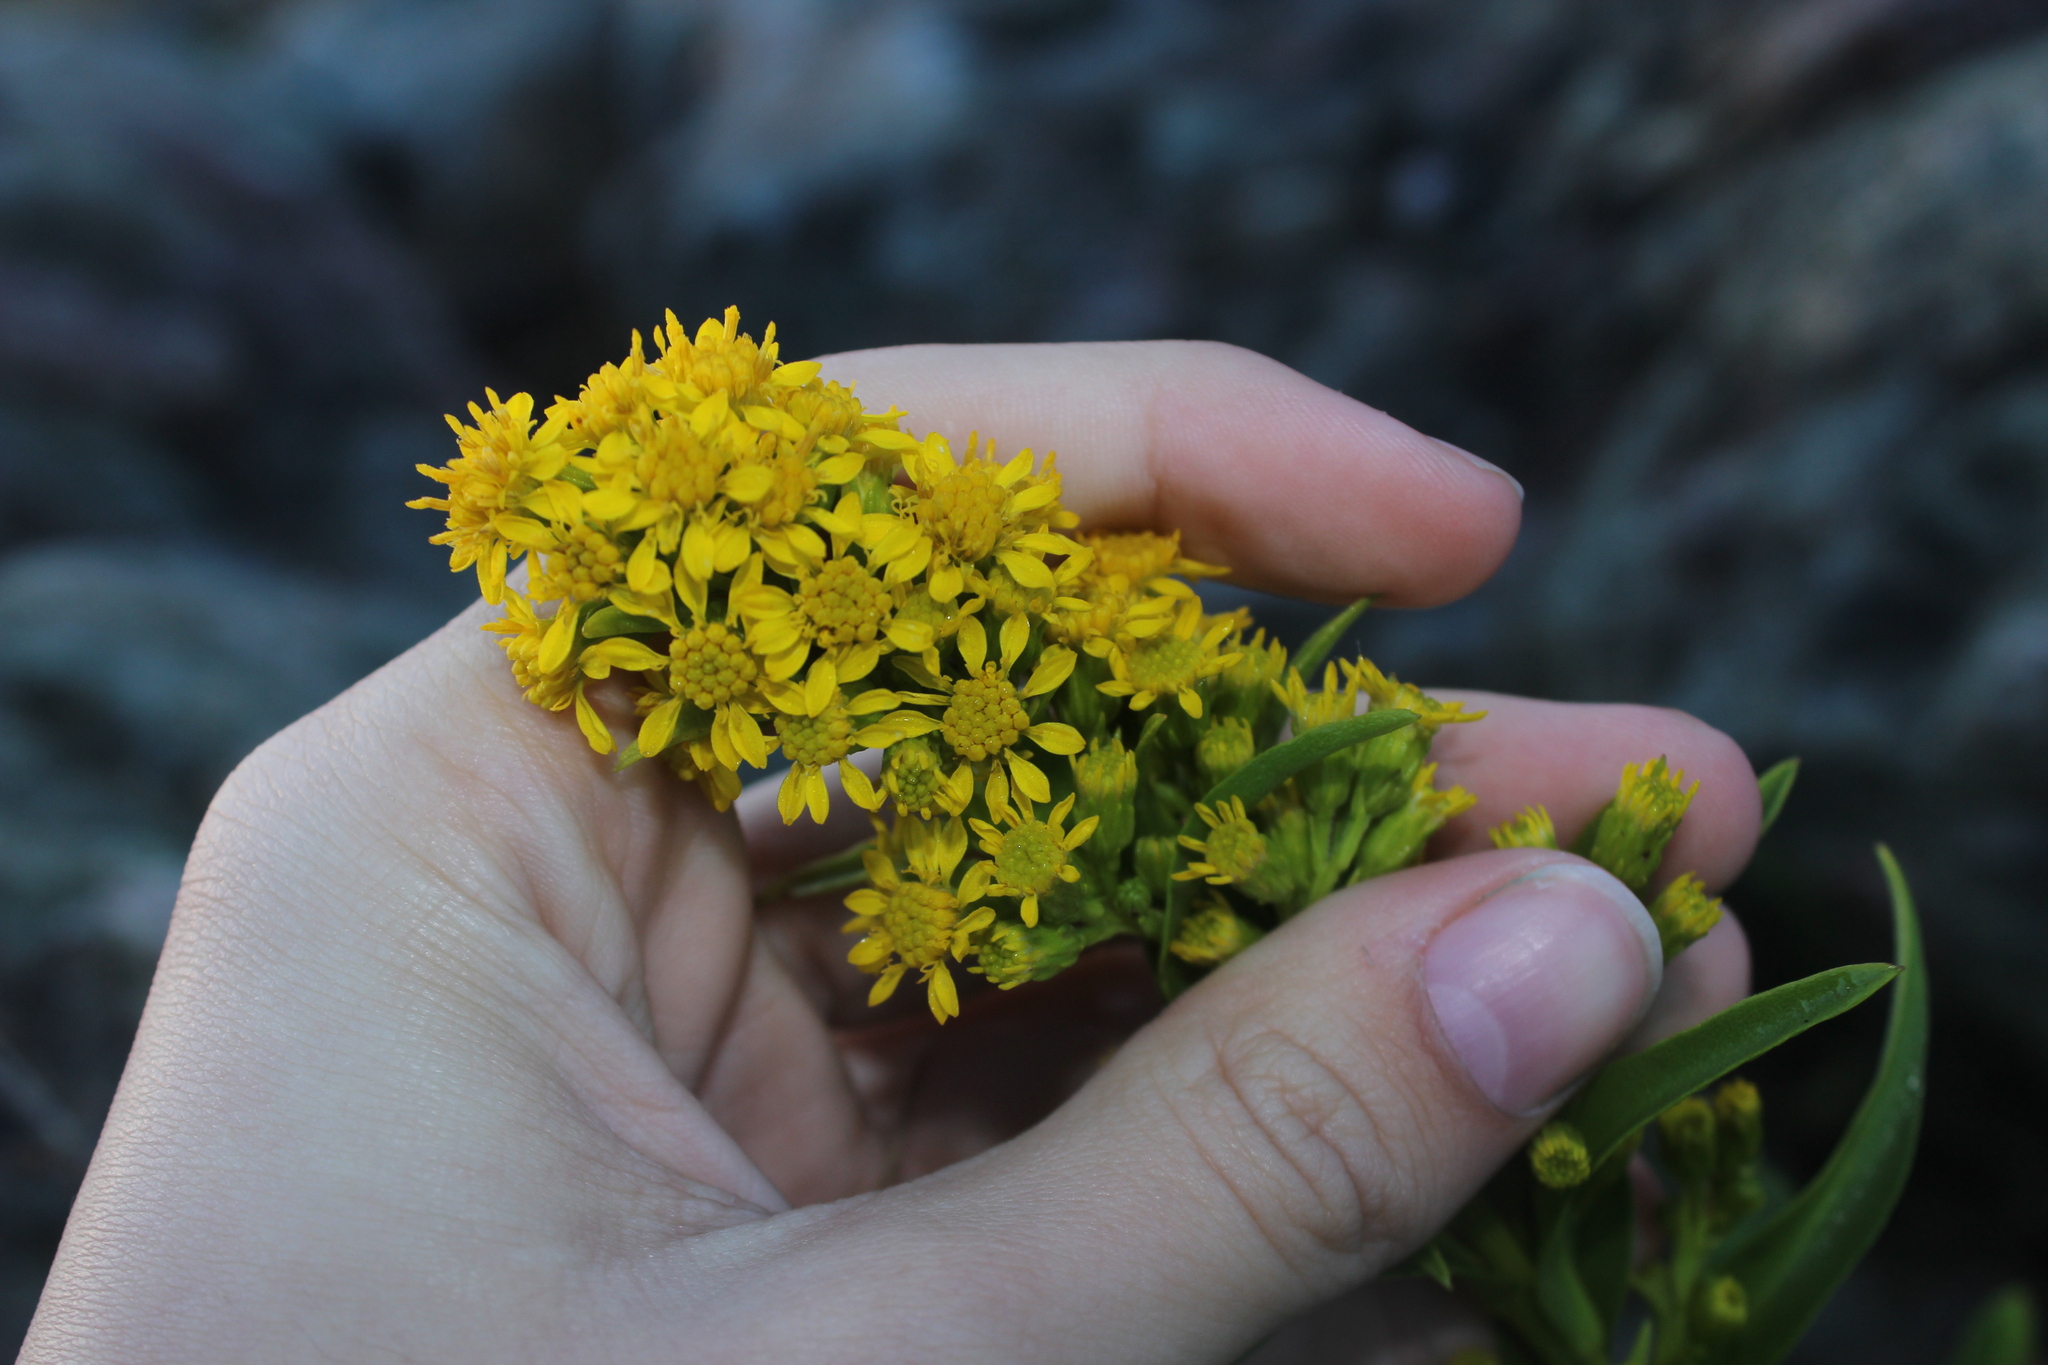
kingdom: Plantae
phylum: Tracheophyta
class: Magnoliopsida
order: Asterales
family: Asteraceae
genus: Solidago
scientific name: Solidago sempervirens
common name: Salt-marsh goldenrod
